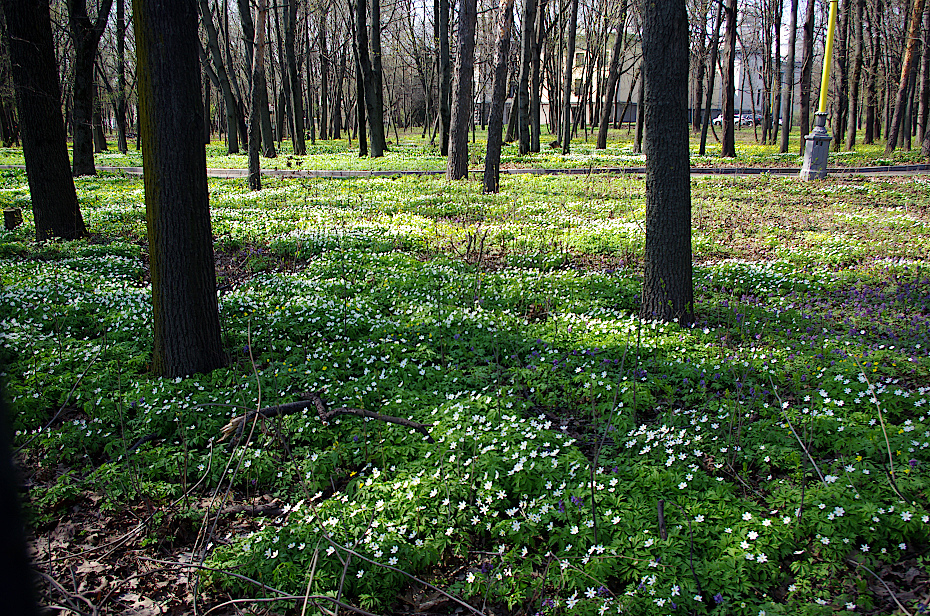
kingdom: Plantae
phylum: Tracheophyta
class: Magnoliopsida
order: Ranunculales
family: Ranunculaceae
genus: Anemone
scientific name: Anemone nemorosa
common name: Wood anemone
